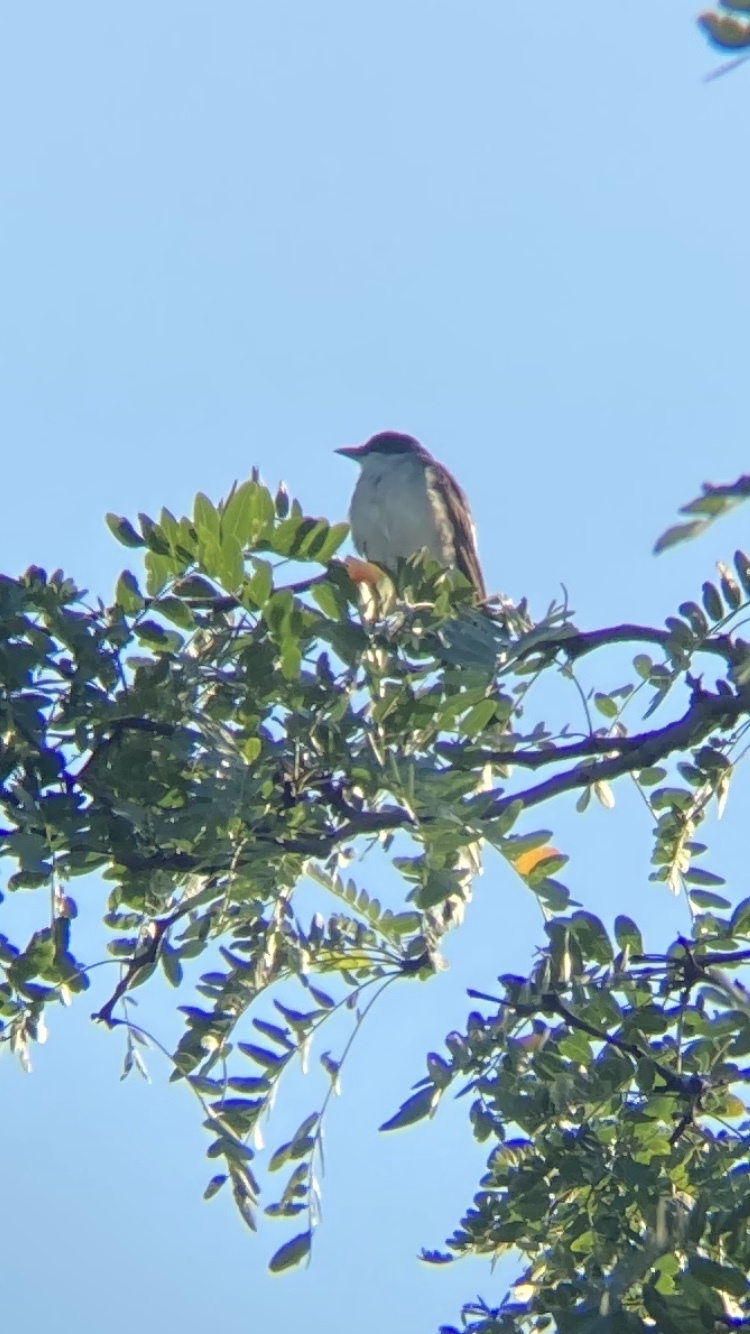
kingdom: Animalia
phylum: Chordata
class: Aves
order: Passeriformes
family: Tyrannidae
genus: Tyrannus
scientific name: Tyrannus tyrannus
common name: Eastern kingbird
